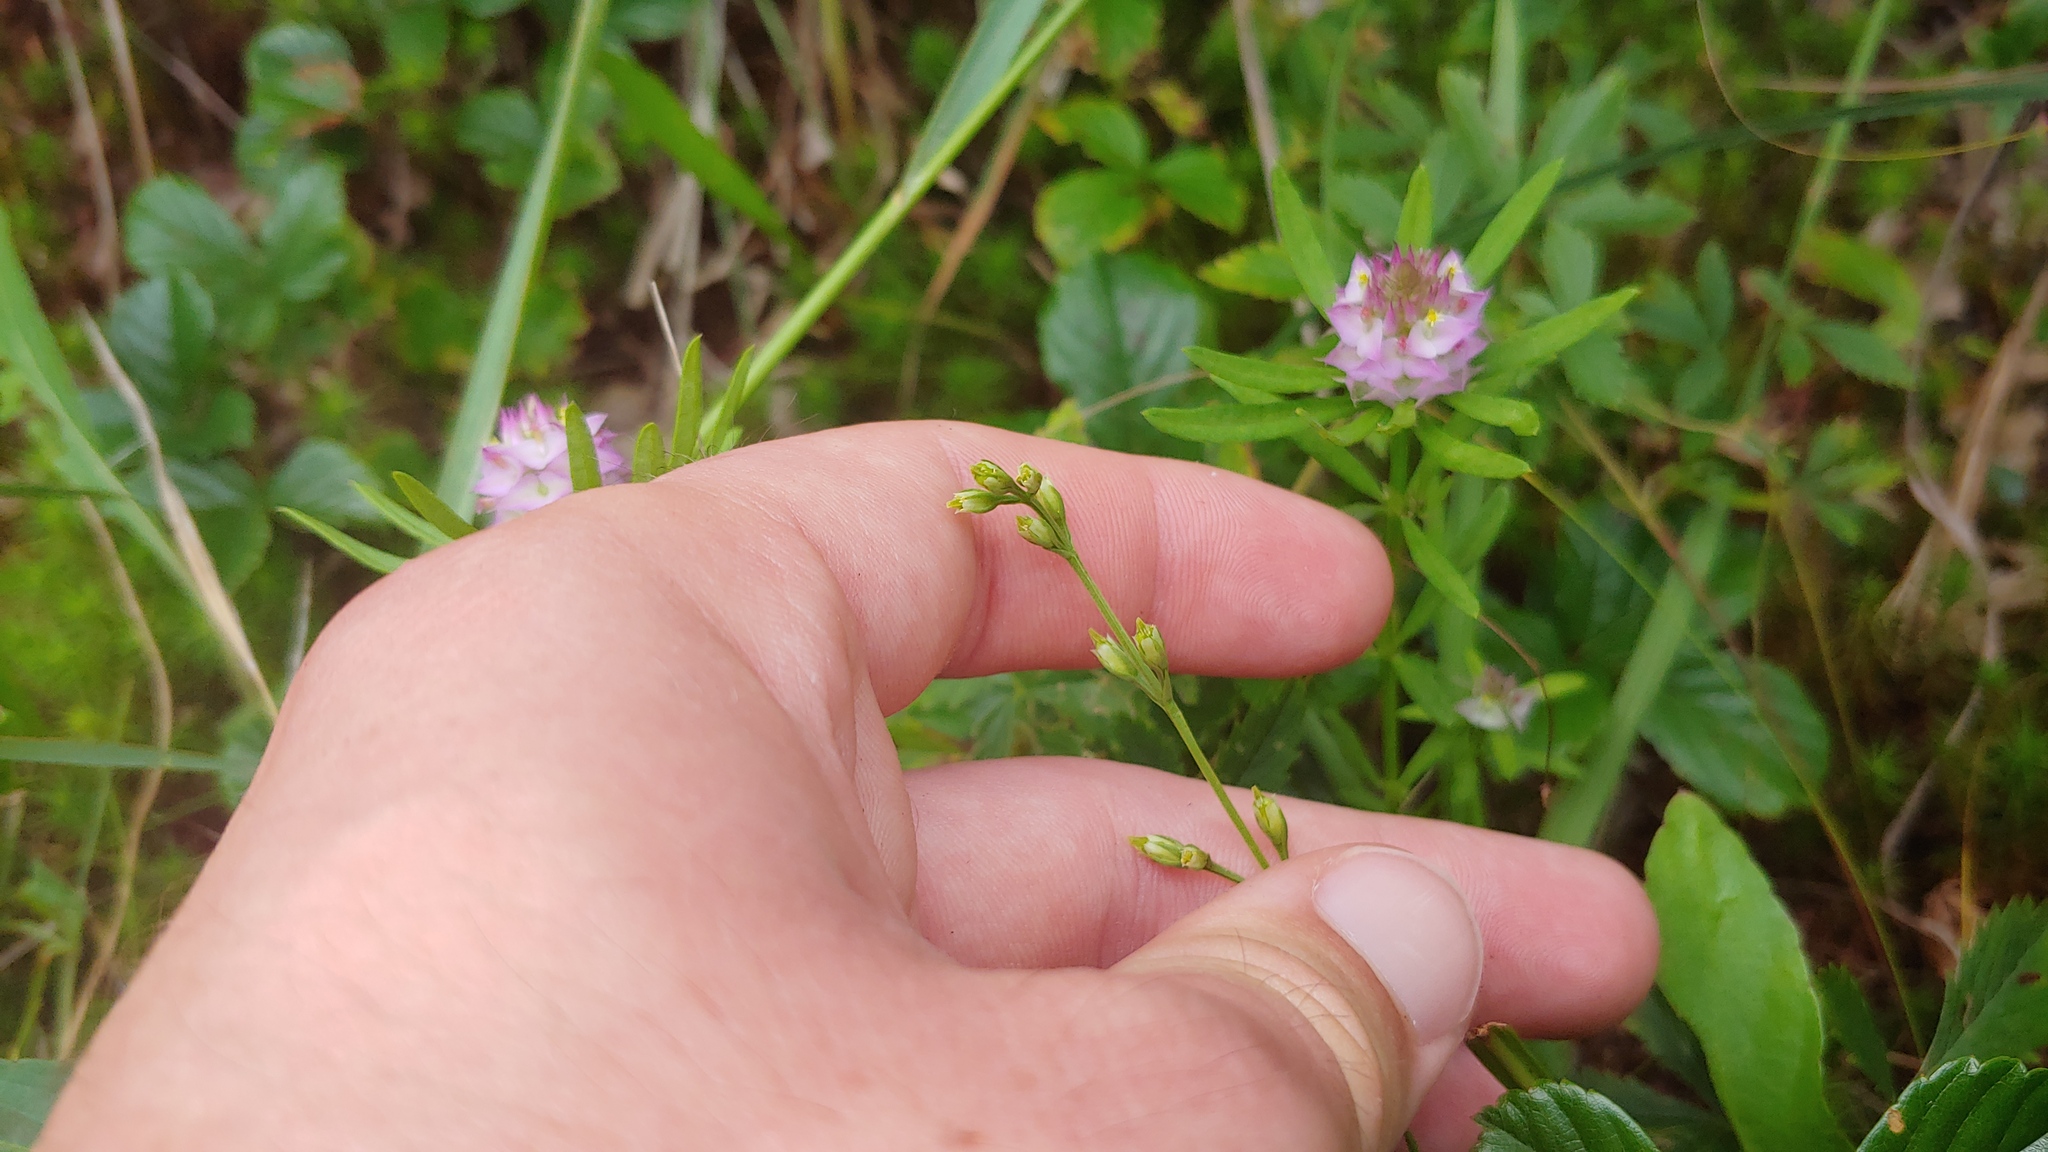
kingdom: Plantae
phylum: Tracheophyta
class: Magnoliopsida
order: Gentianales
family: Gentianaceae
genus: Bartonia
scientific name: Bartonia virginica
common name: Yellow bartonia
